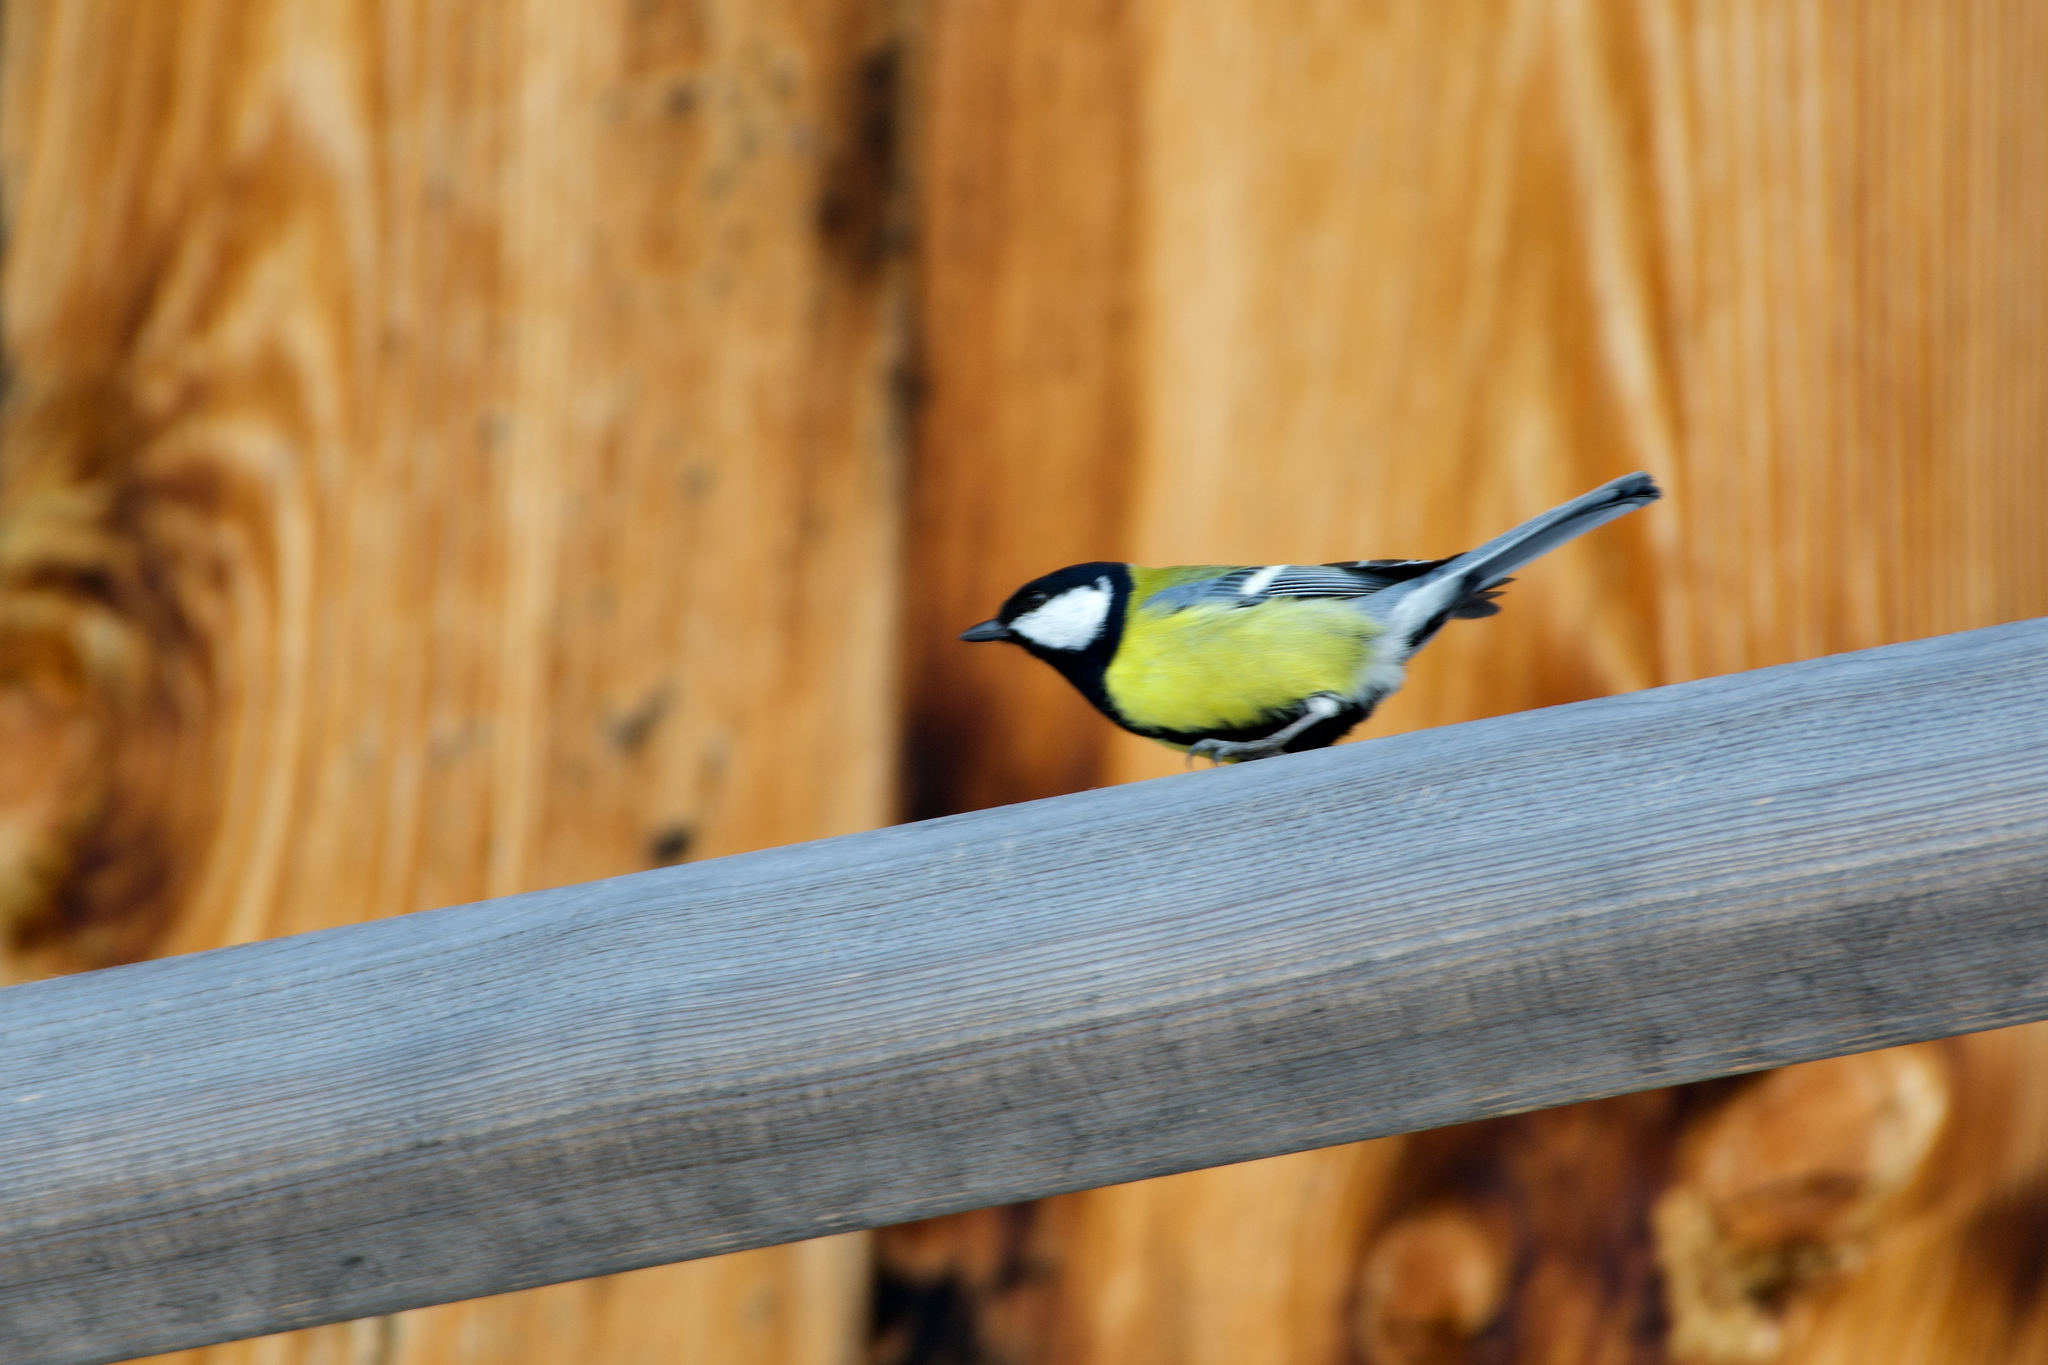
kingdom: Animalia
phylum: Chordata
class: Aves
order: Passeriformes
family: Paridae
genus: Parus
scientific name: Parus major
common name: Great tit
